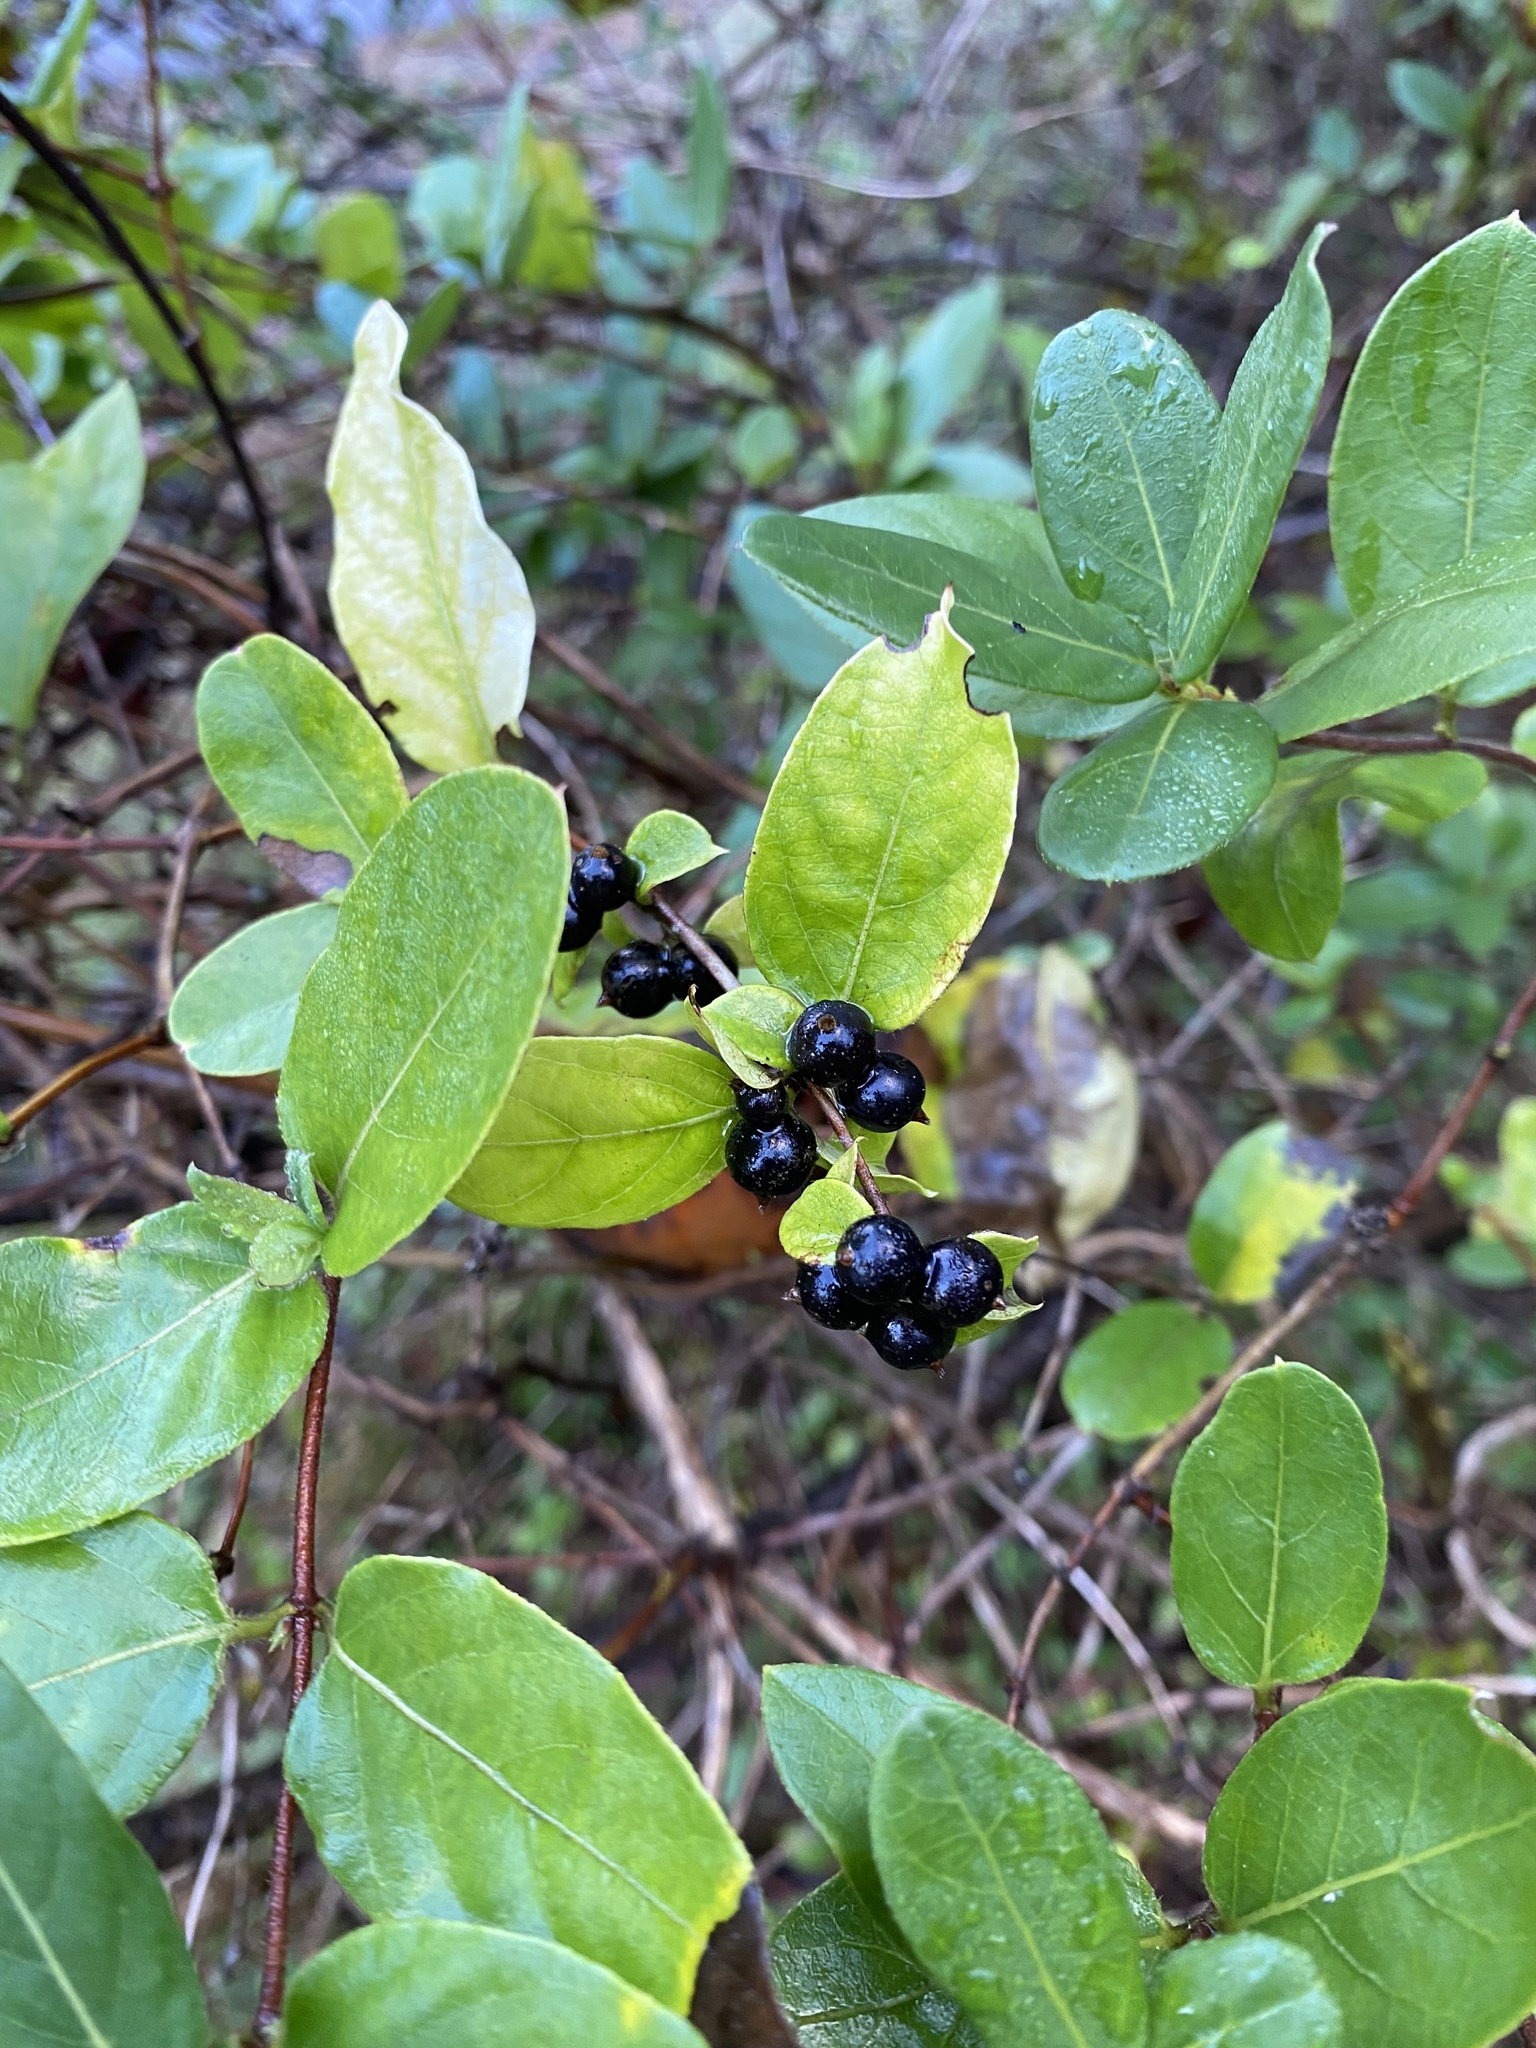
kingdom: Plantae
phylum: Tracheophyta
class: Magnoliopsida
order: Dipsacales
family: Caprifoliaceae
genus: Lonicera
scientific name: Lonicera japonica
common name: Japanese honeysuckle
